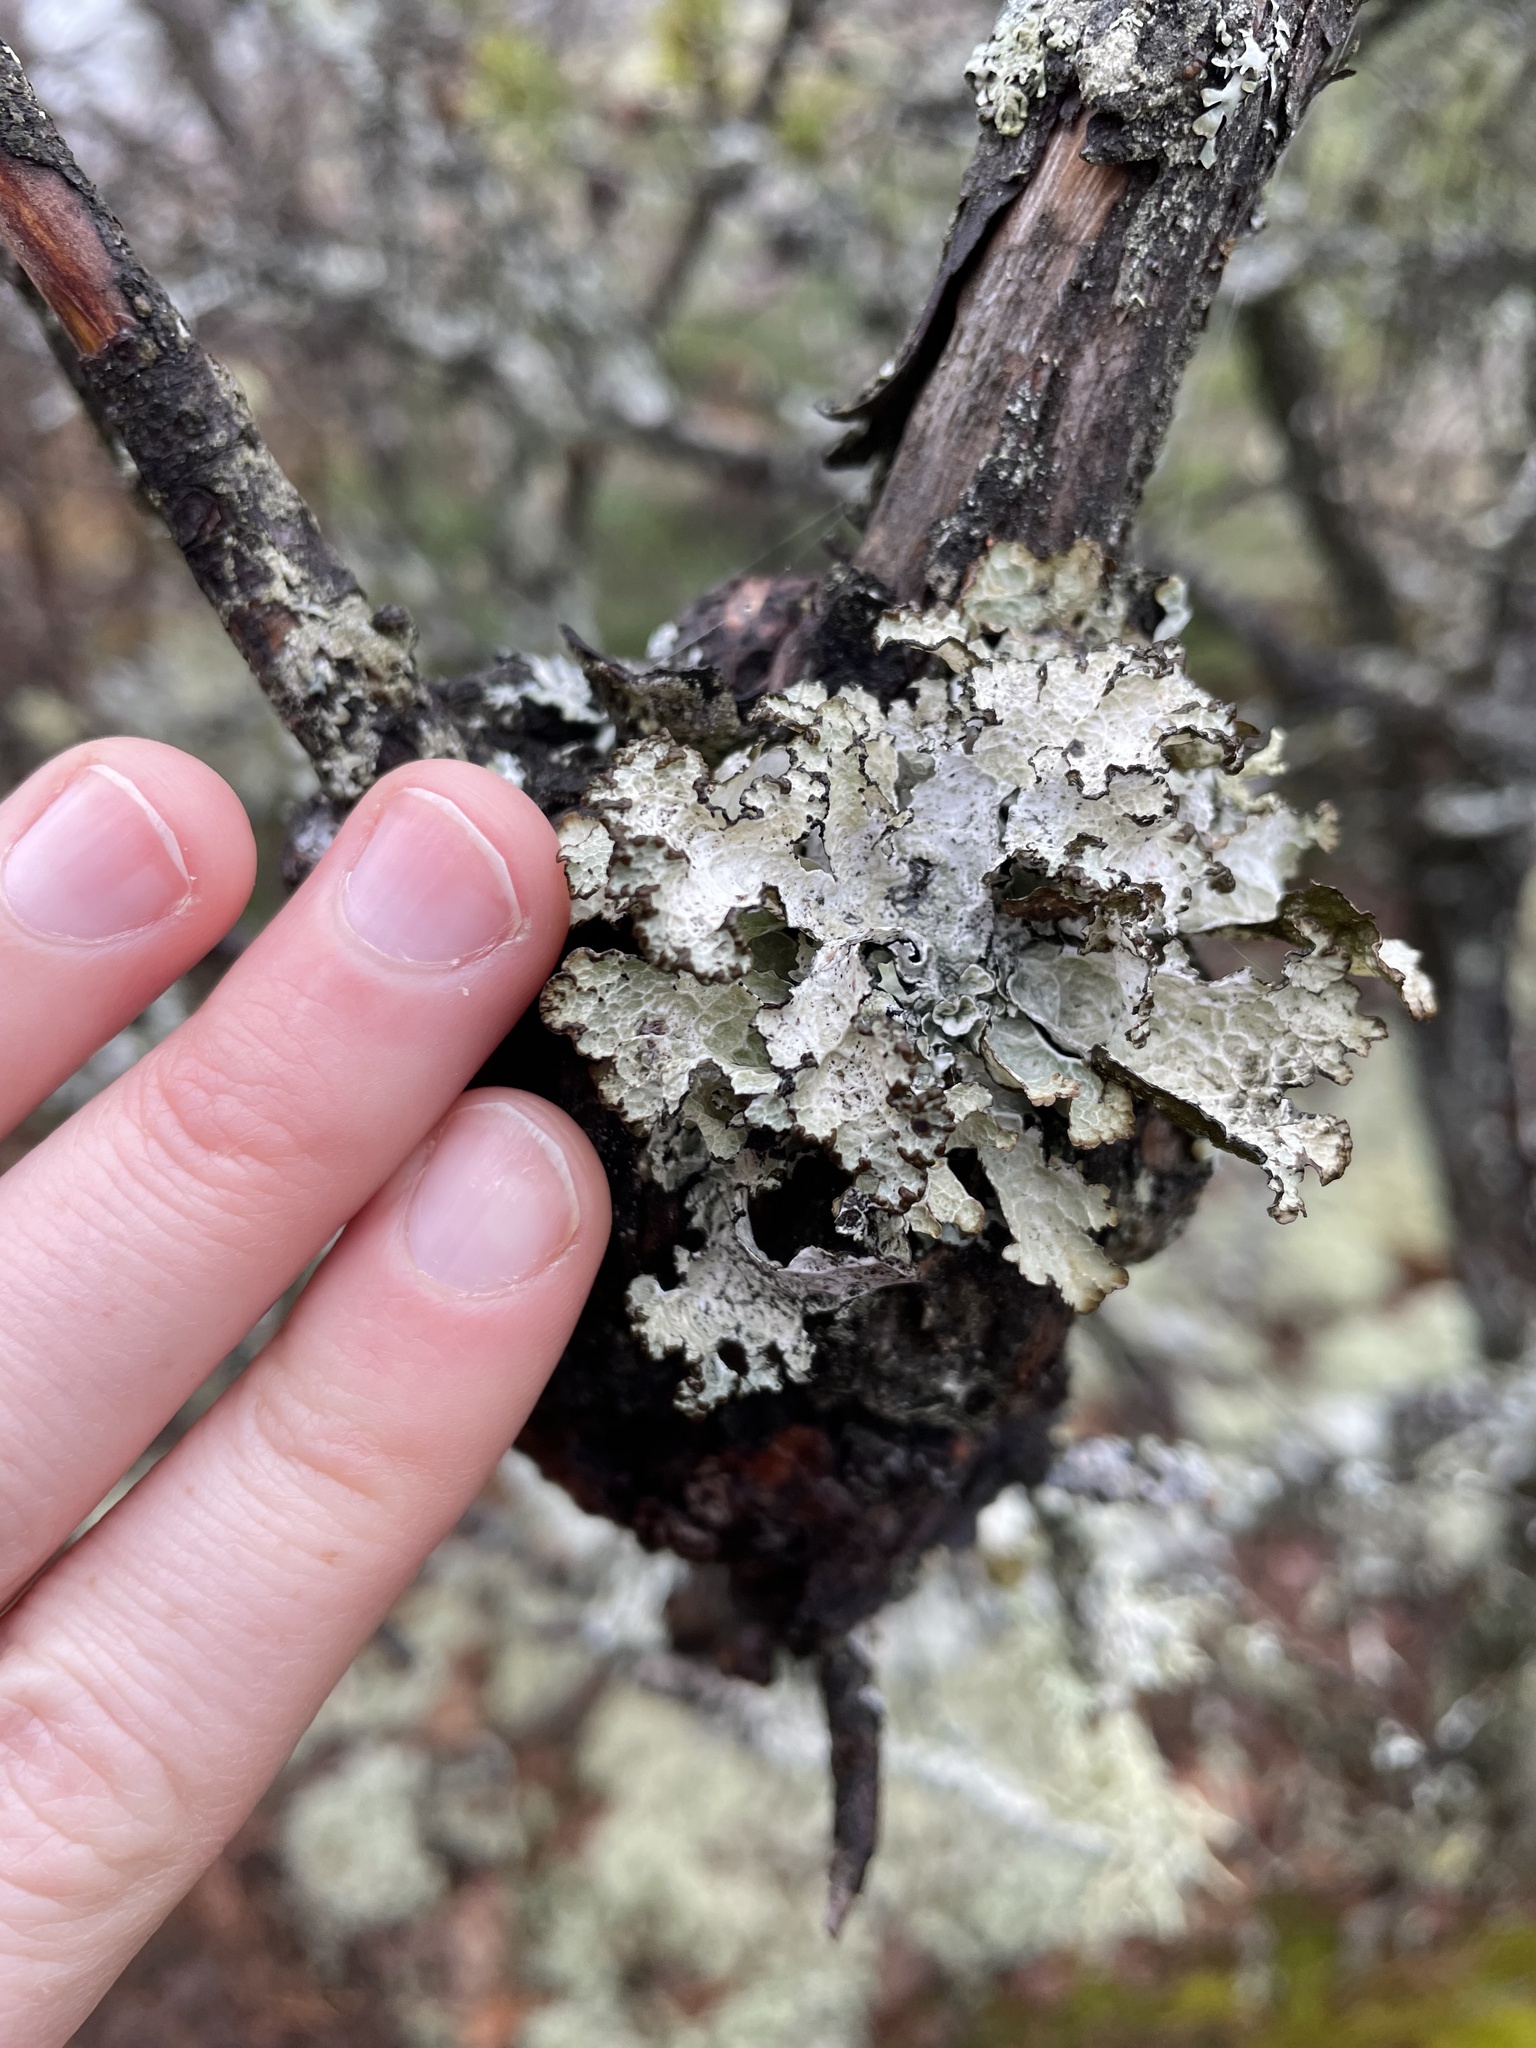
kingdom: Fungi
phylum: Ascomycota
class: Lecanoromycetes
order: Lecanorales
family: Parmeliaceae
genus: Platismatia
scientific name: Platismatia tuckermanii
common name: Crumpled rag lichen
